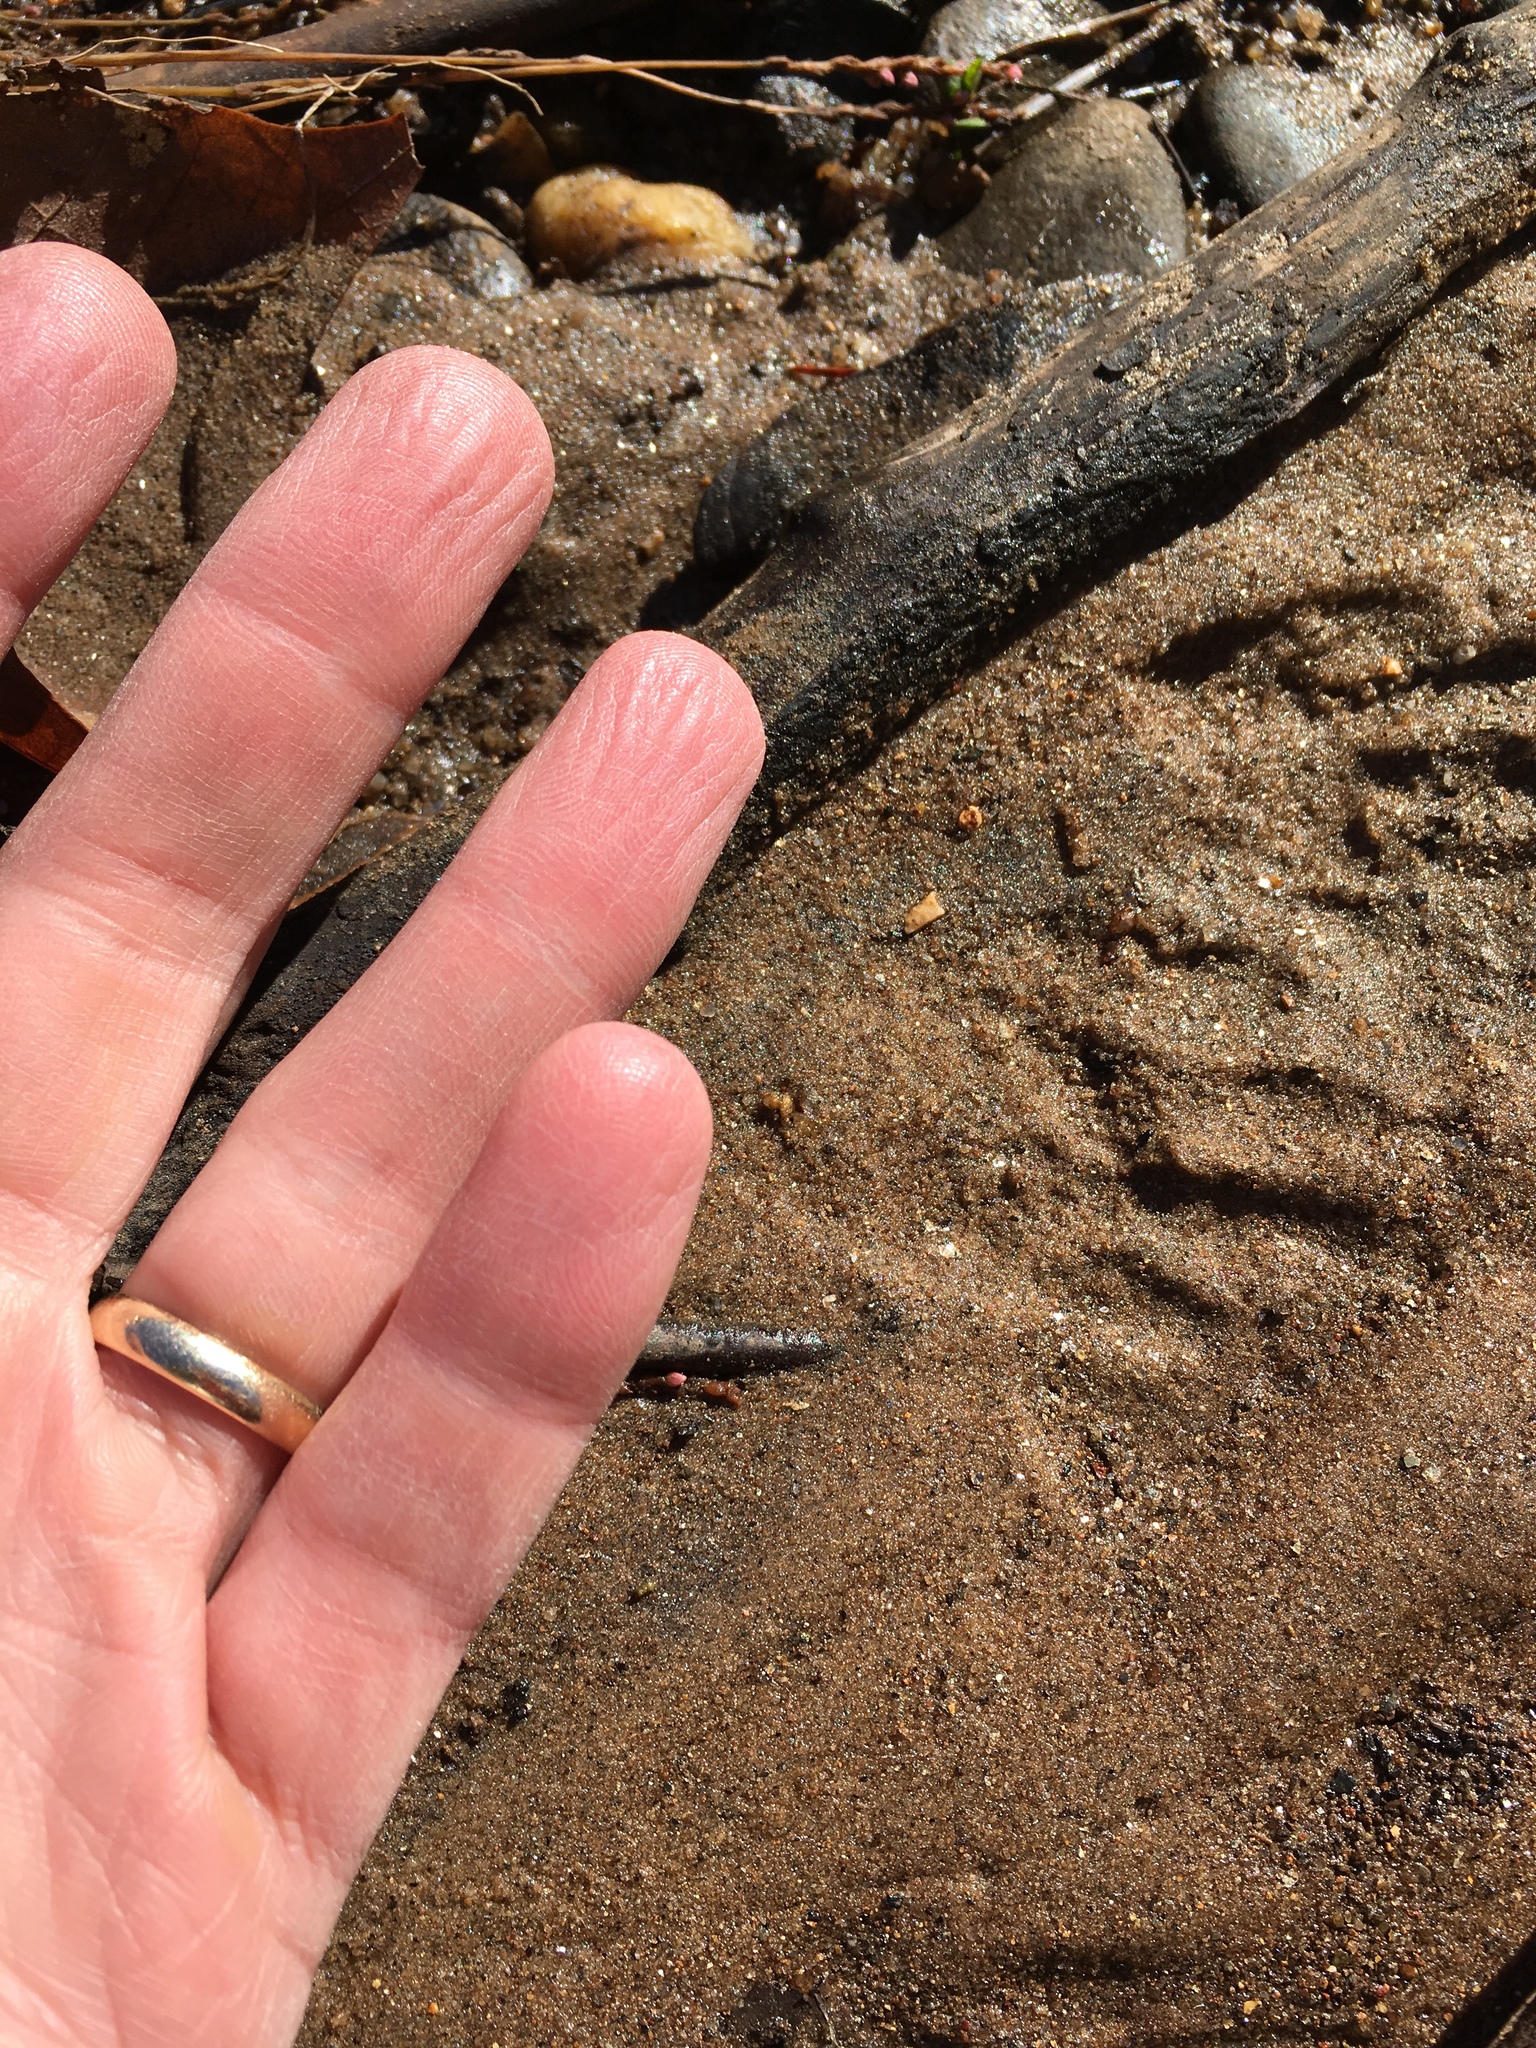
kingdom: Animalia
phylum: Chordata
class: Mammalia
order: Carnivora
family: Procyonidae
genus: Procyon
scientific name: Procyon lotor
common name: Raccoon
